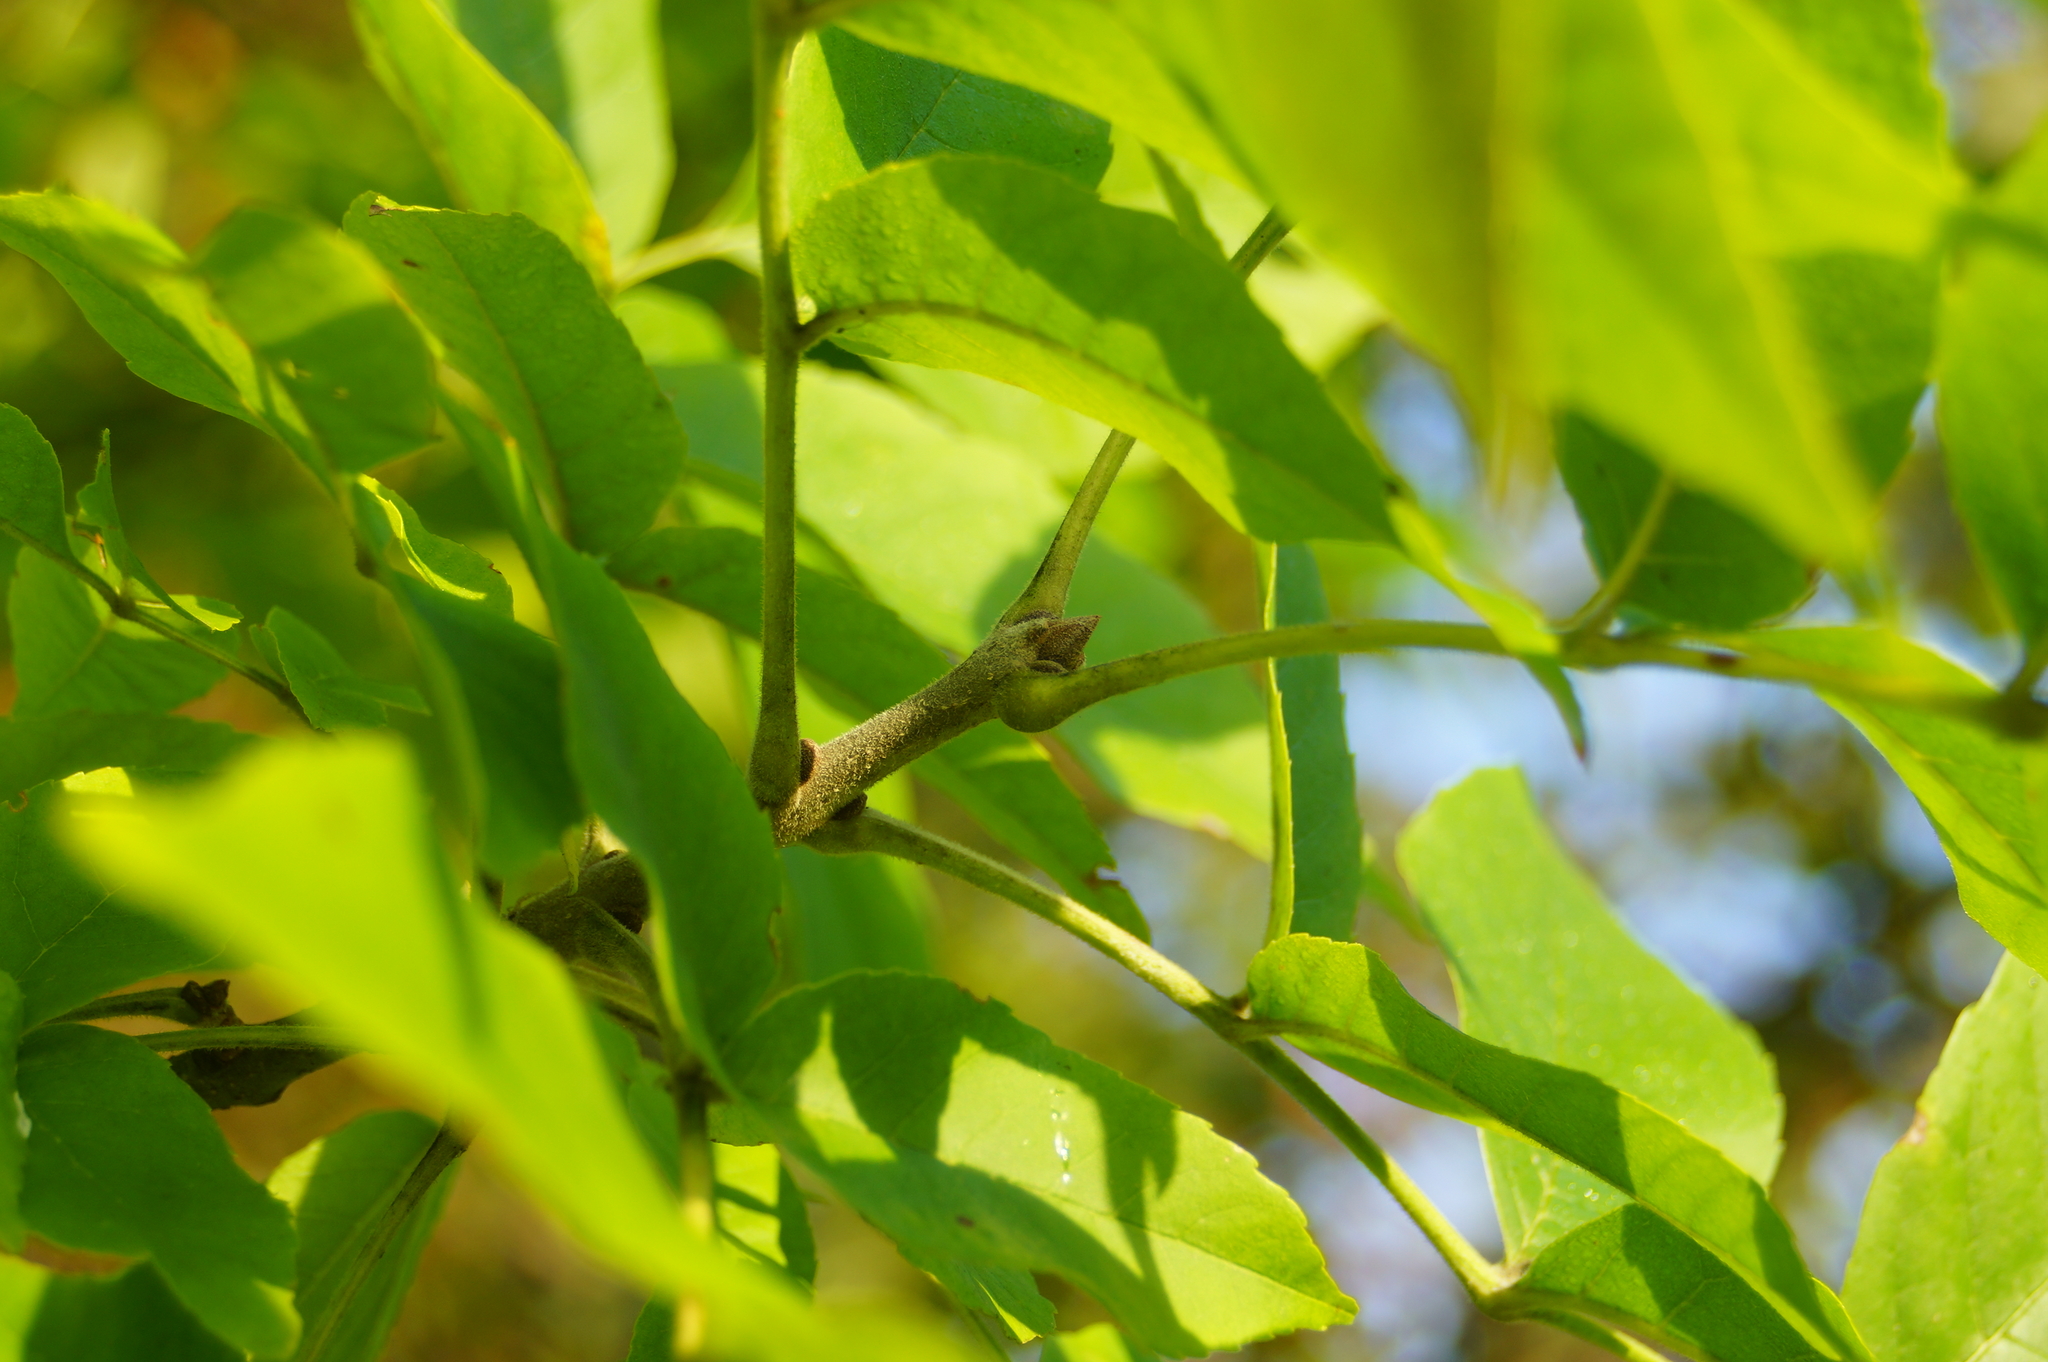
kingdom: Plantae
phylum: Tracheophyta
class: Magnoliopsida
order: Lamiales
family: Oleaceae
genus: Fraxinus
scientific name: Fraxinus pennsylvanica
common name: Green ash
